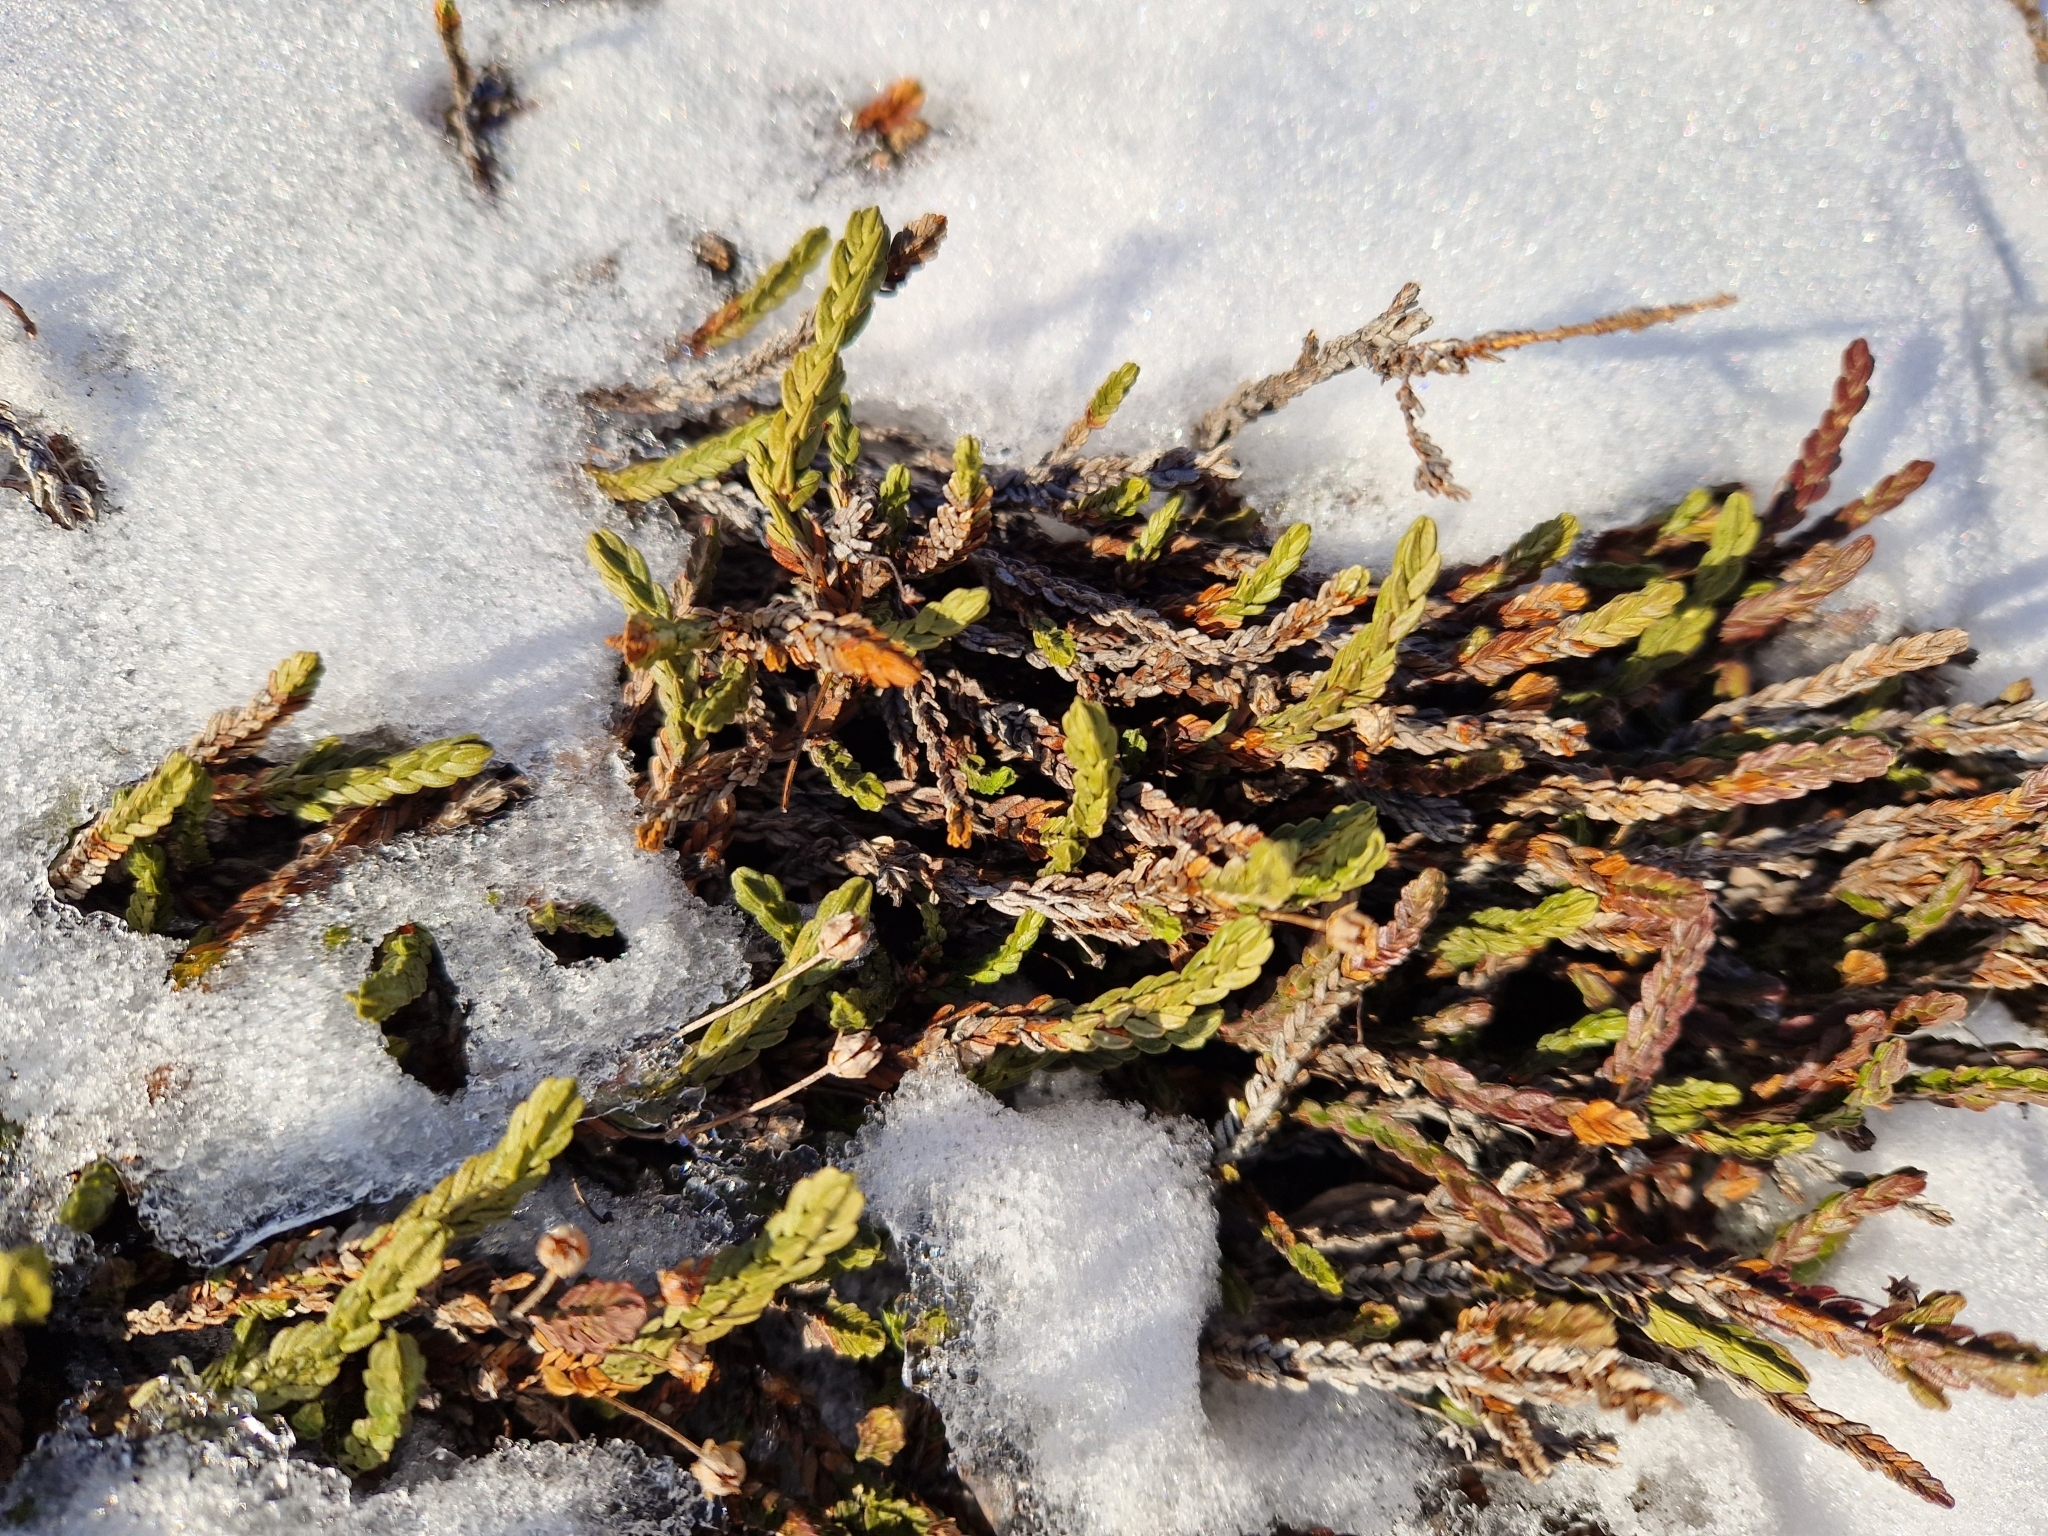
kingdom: Plantae
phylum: Tracheophyta
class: Magnoliopsida
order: Ericales
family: Ericaceae
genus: Cassiope
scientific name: Cassiope tetragona
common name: Arctic bell heather
